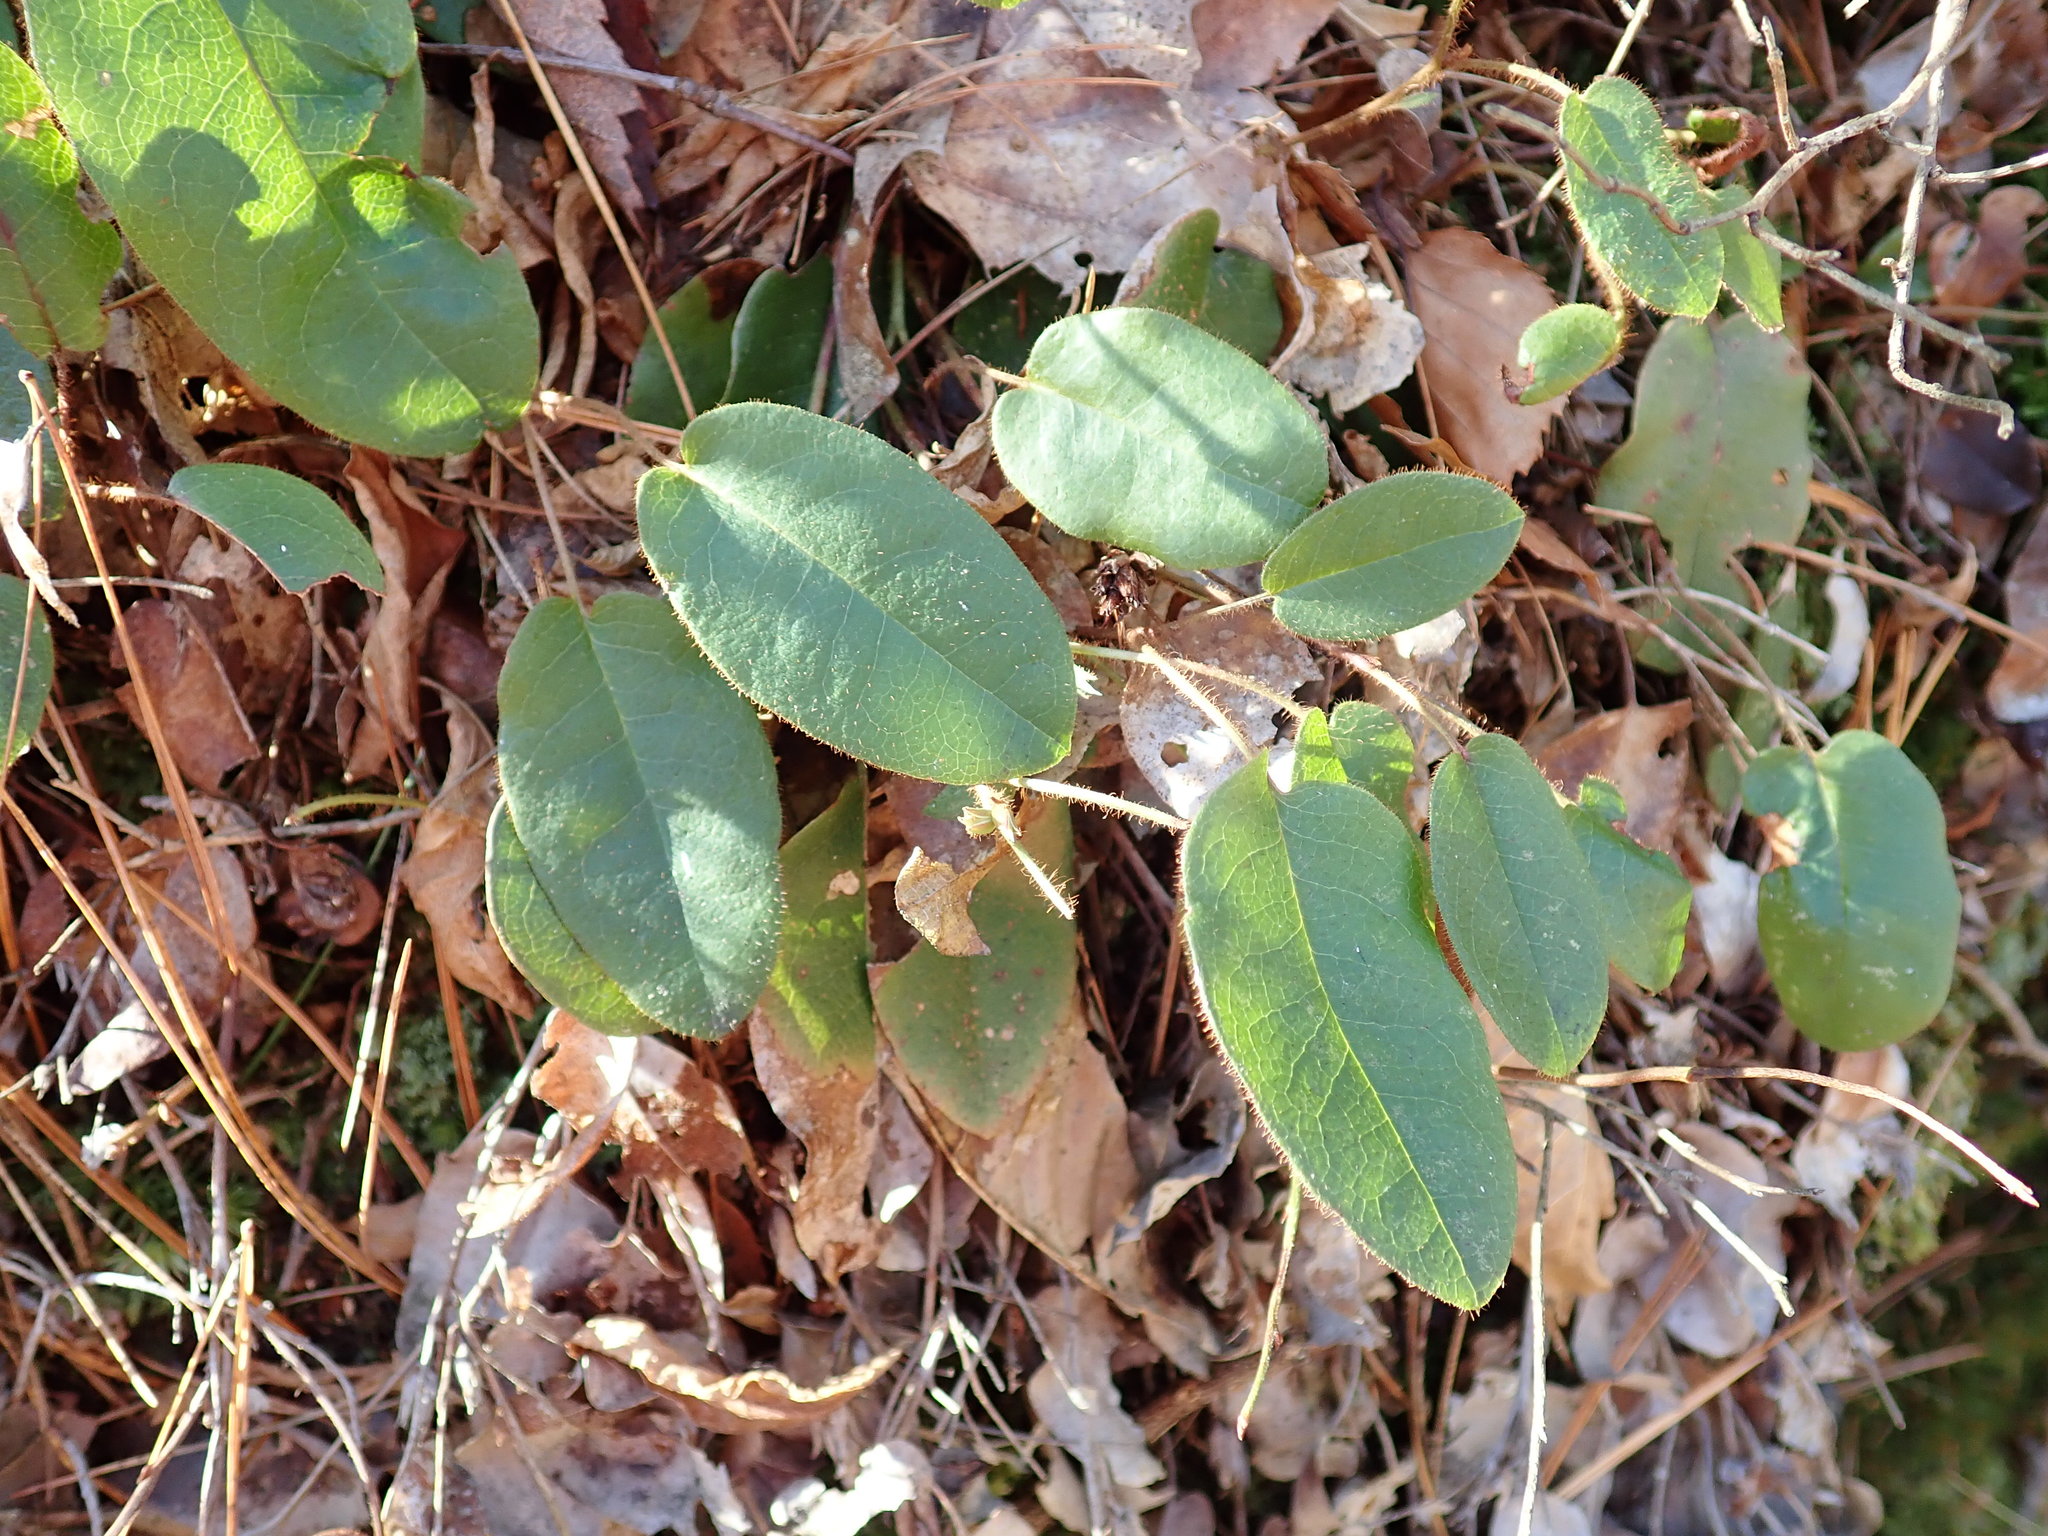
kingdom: Plantae
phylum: Tracheophyta
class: Magnoliopsida
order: Ericales
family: Ericaceae
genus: Epigaea
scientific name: Epigaea repens
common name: Gravelroot
